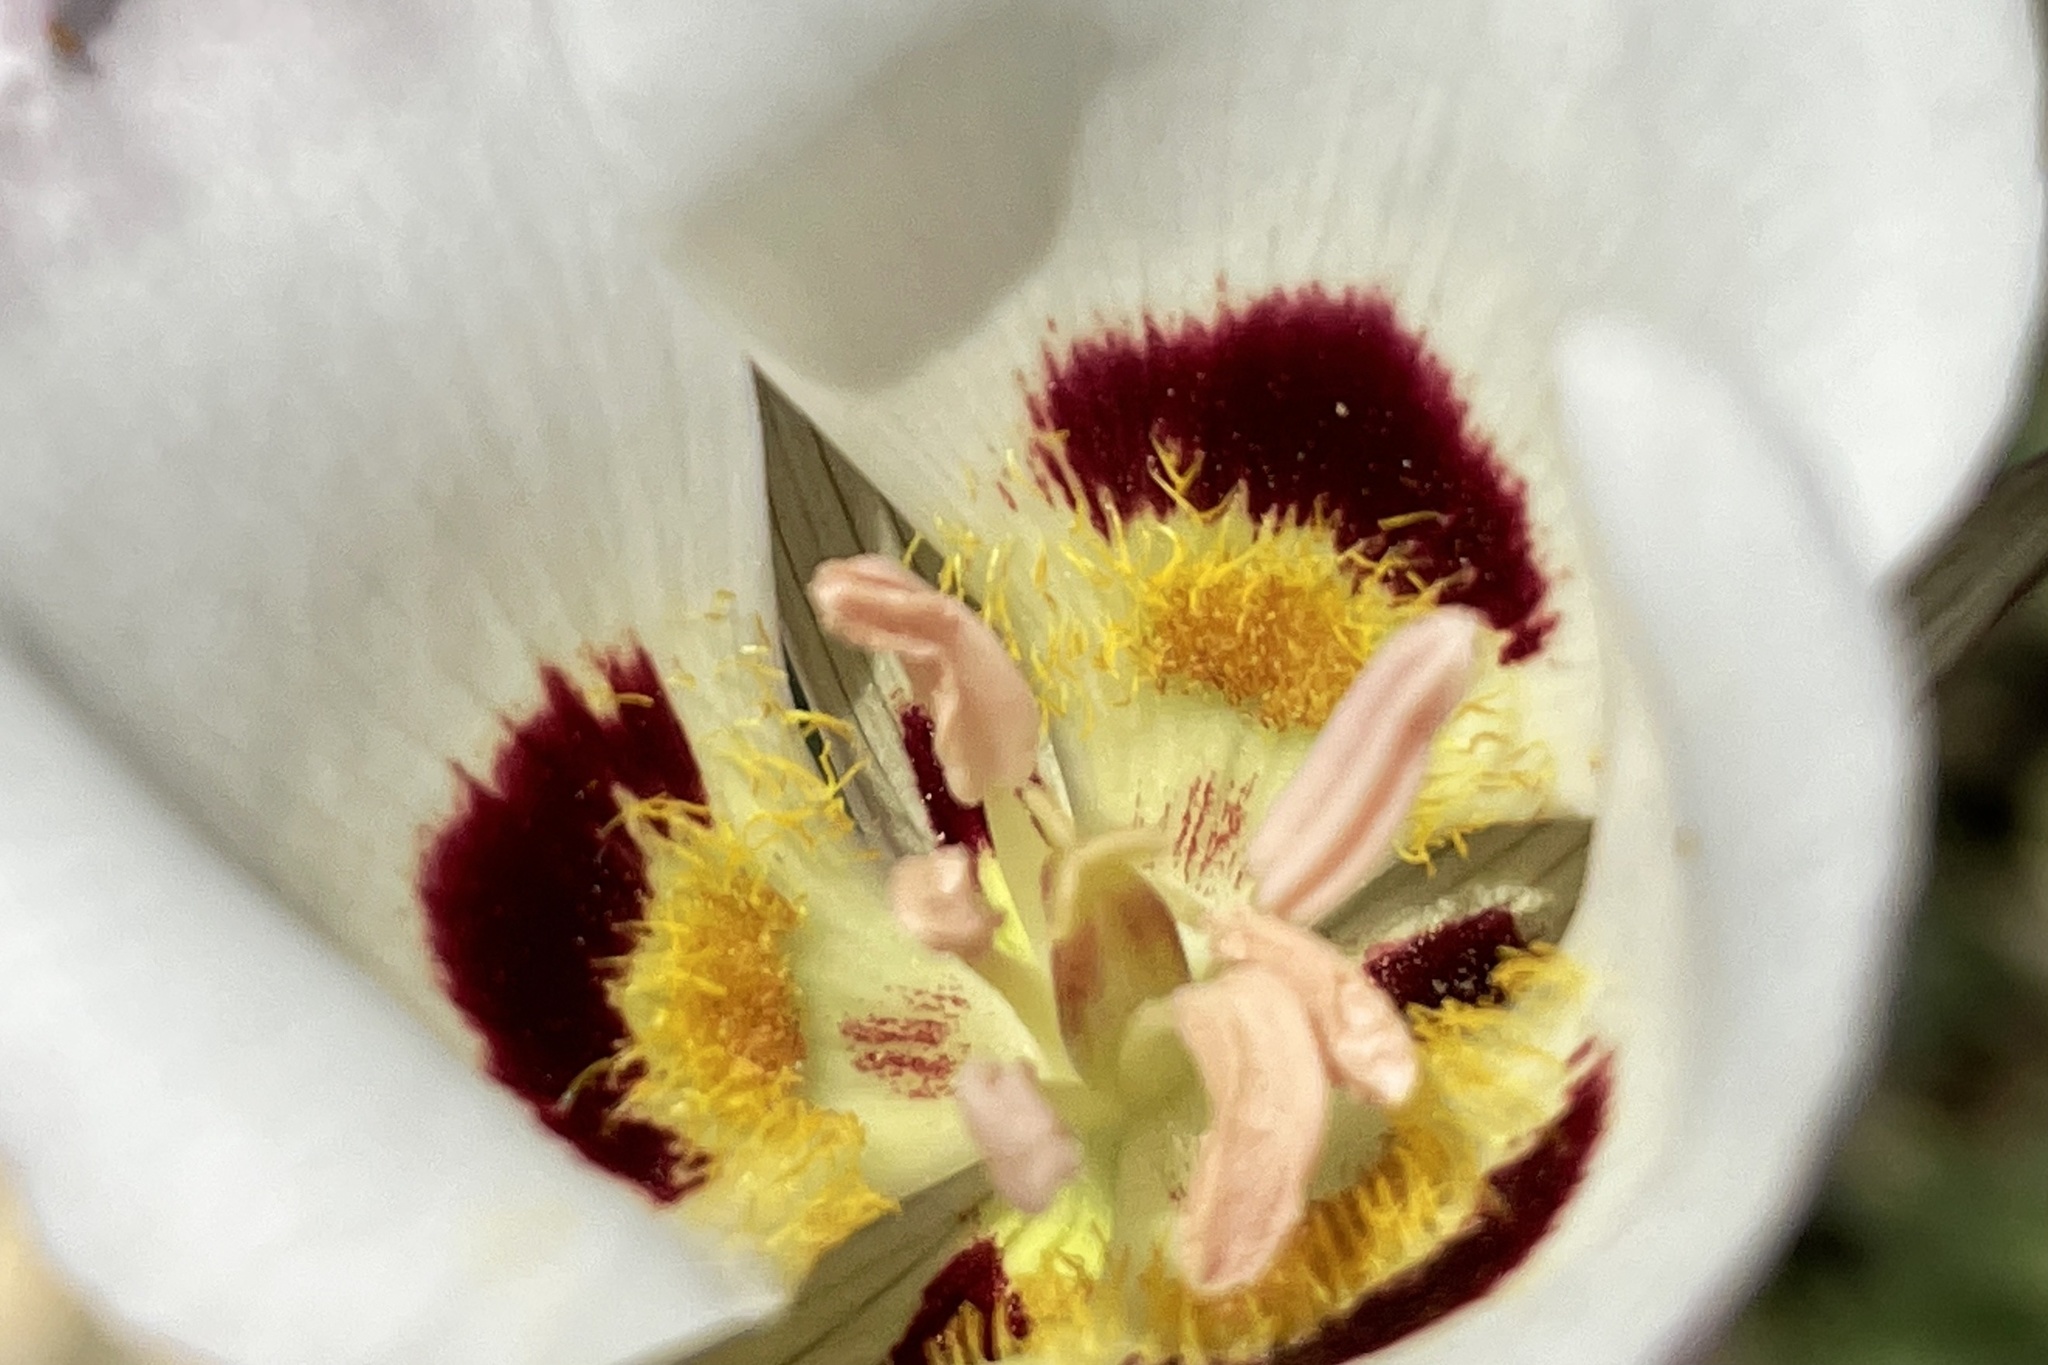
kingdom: Plantae
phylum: Tracheophyta
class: Liliopsida
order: Liliales
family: Liliaceae
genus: Calochortus
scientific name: Calochortus dunnii
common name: Dunn's mariposa-lily
